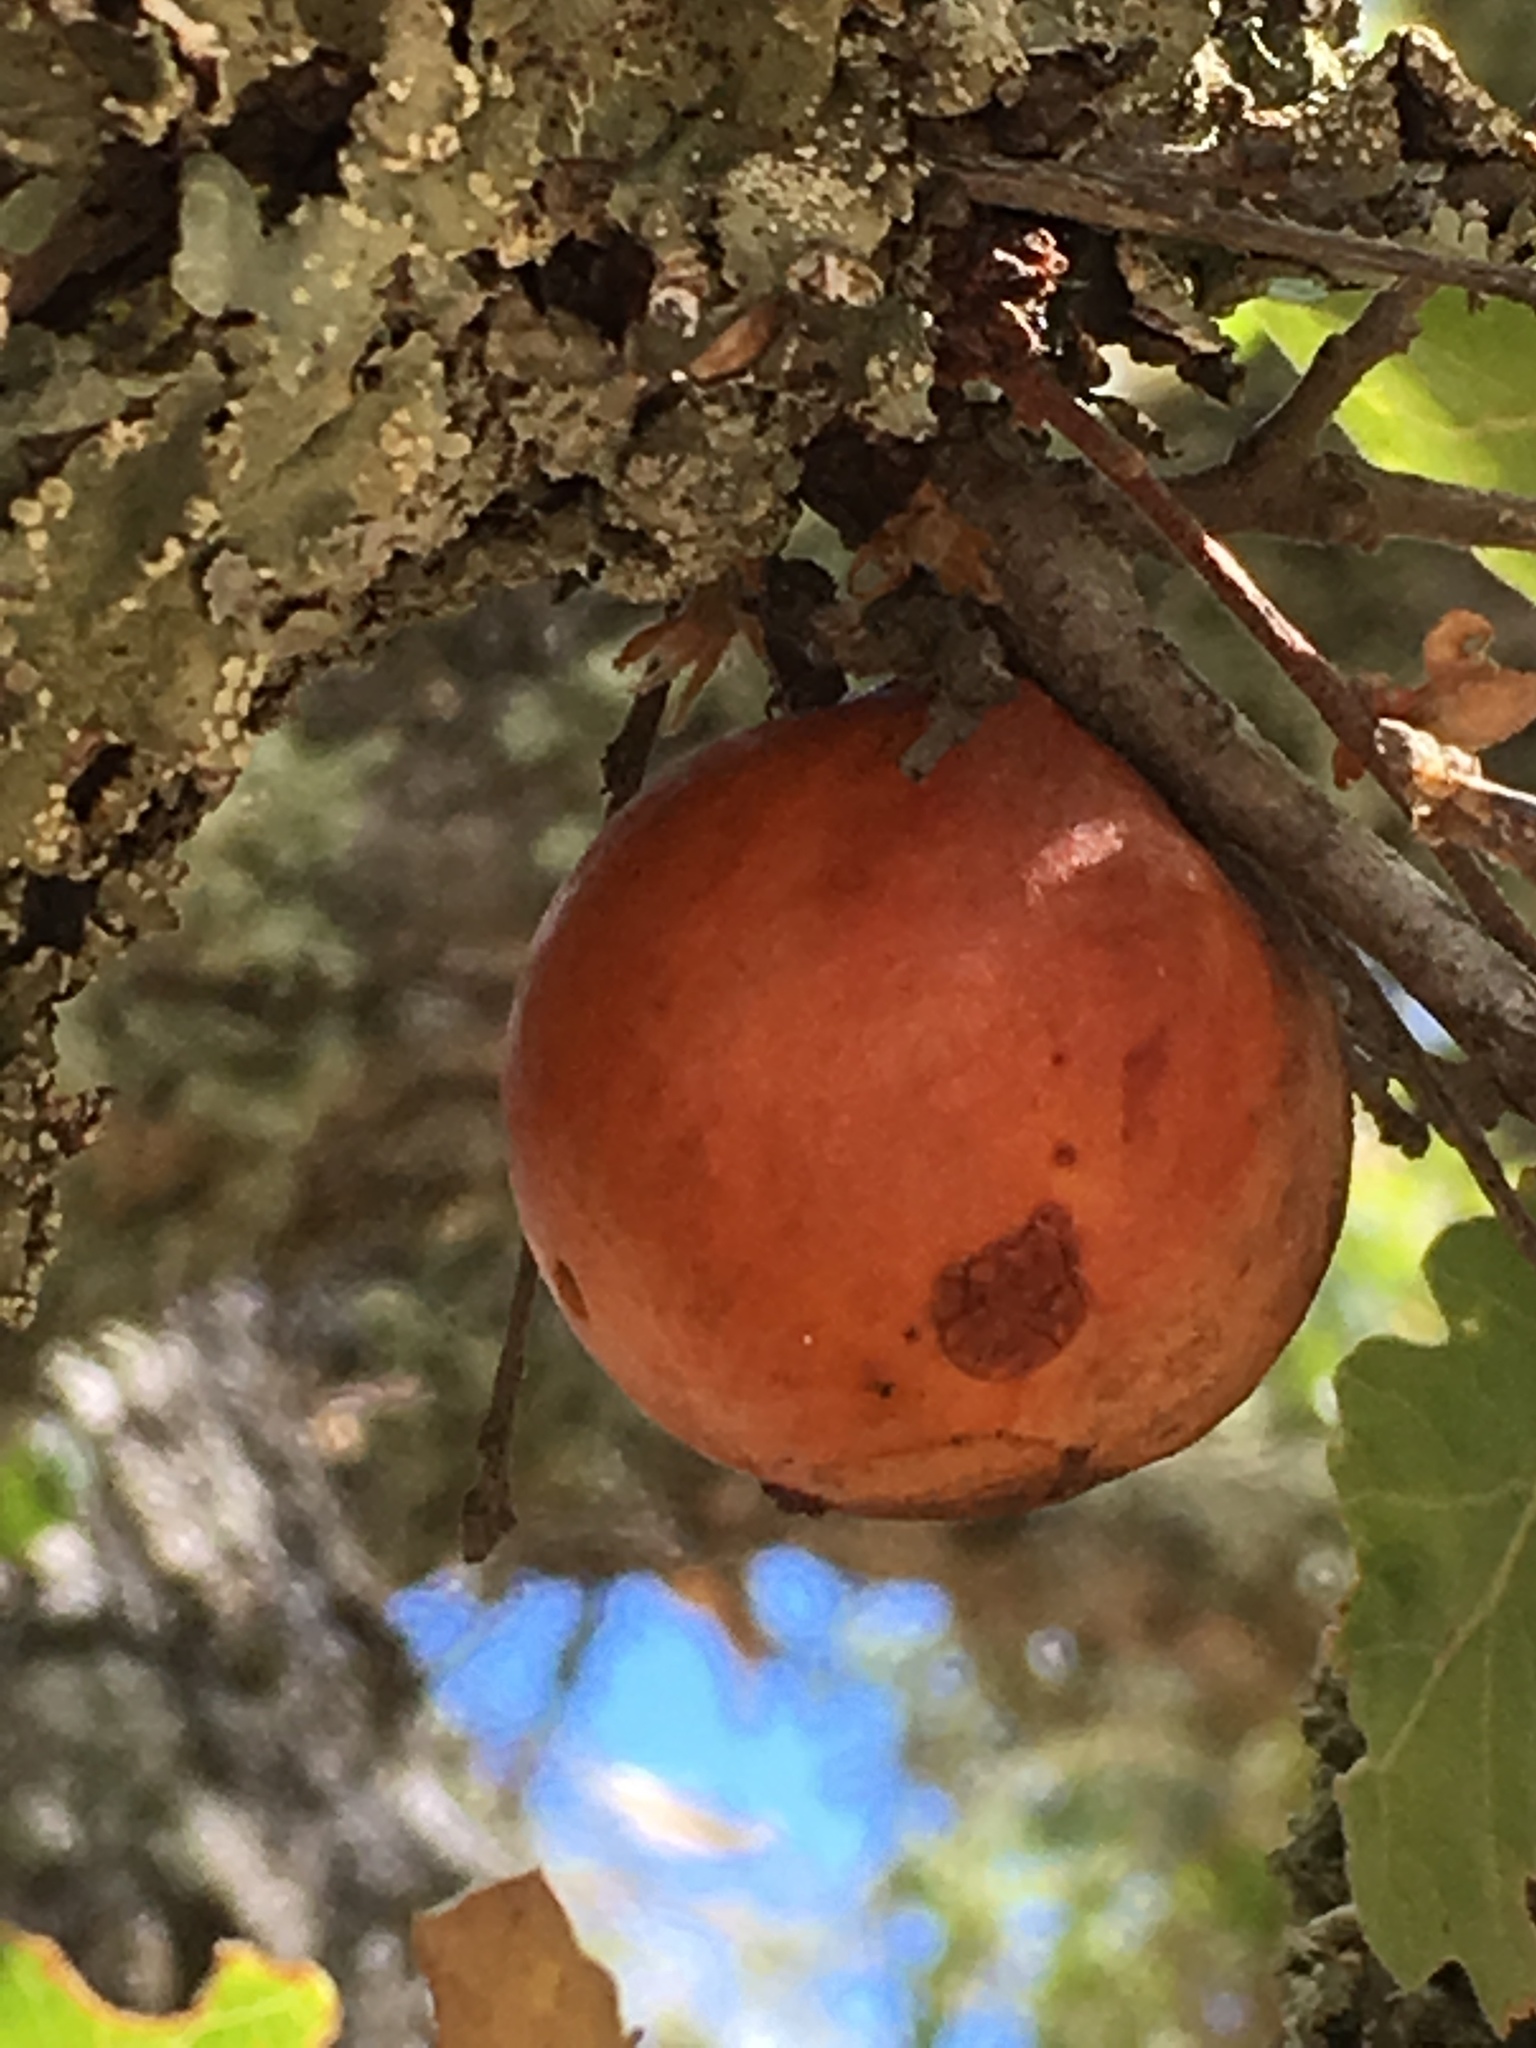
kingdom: Animalia
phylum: Arthropoda
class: Insecta
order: Hymenoptera
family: Cynipidae
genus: Andricus
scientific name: Andricus quercuscalifornicus
